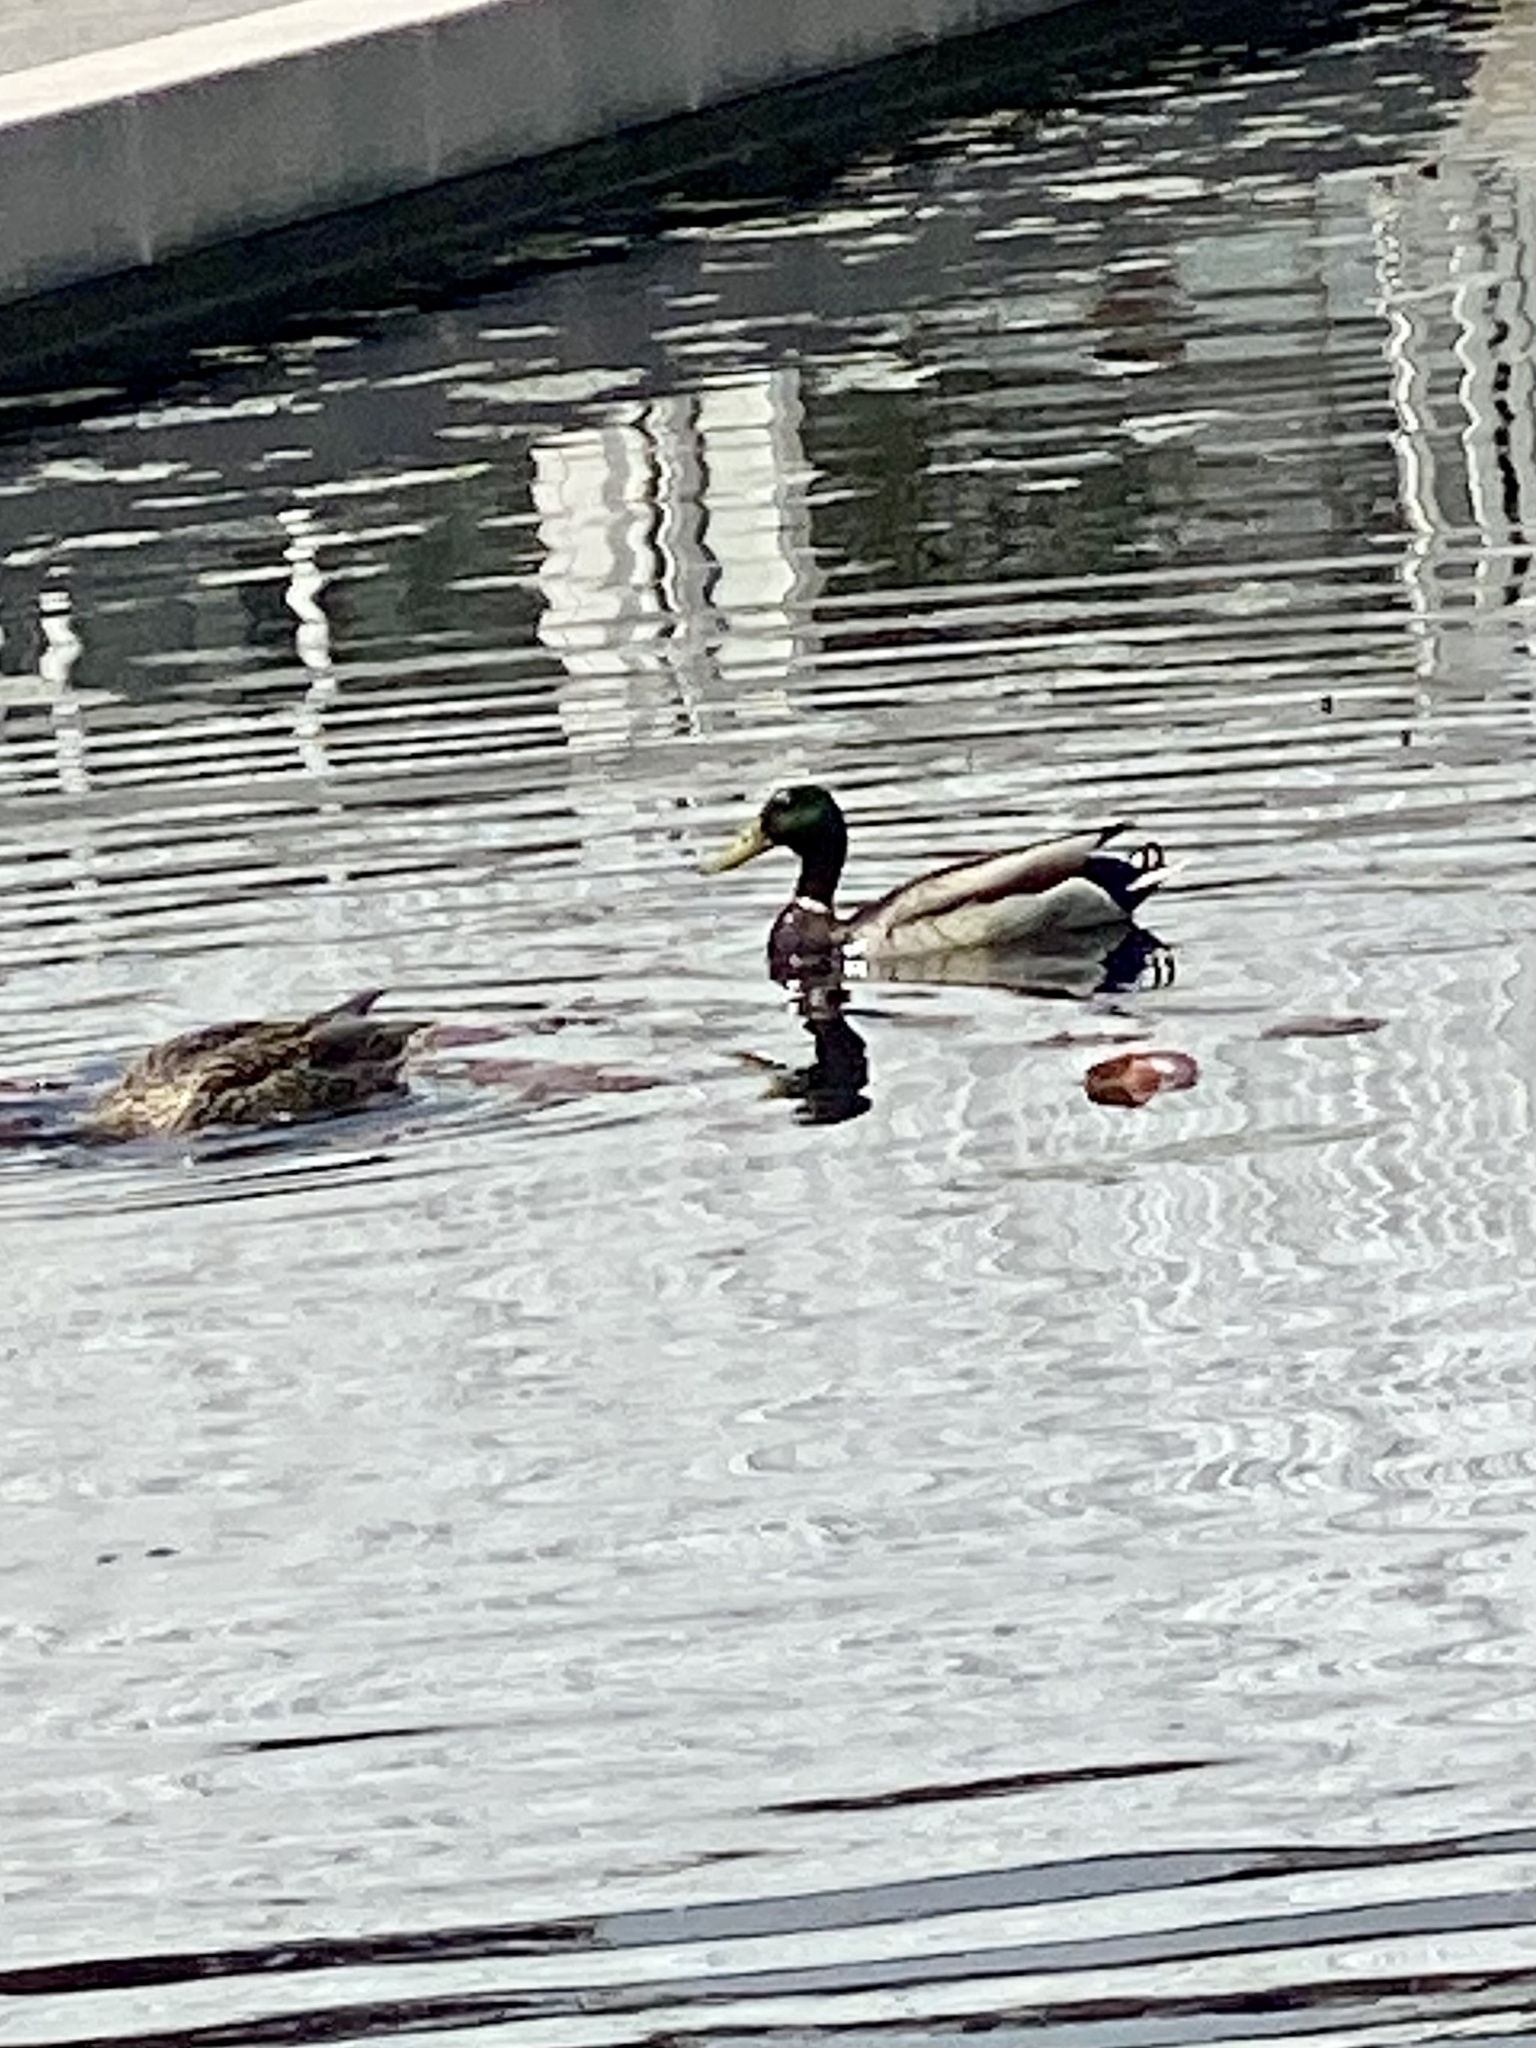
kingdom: Animalia
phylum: Chordata
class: Aves
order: Anseriformes
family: Anatidae
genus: Anas
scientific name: Anas platyrhynchos
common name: Mallard
